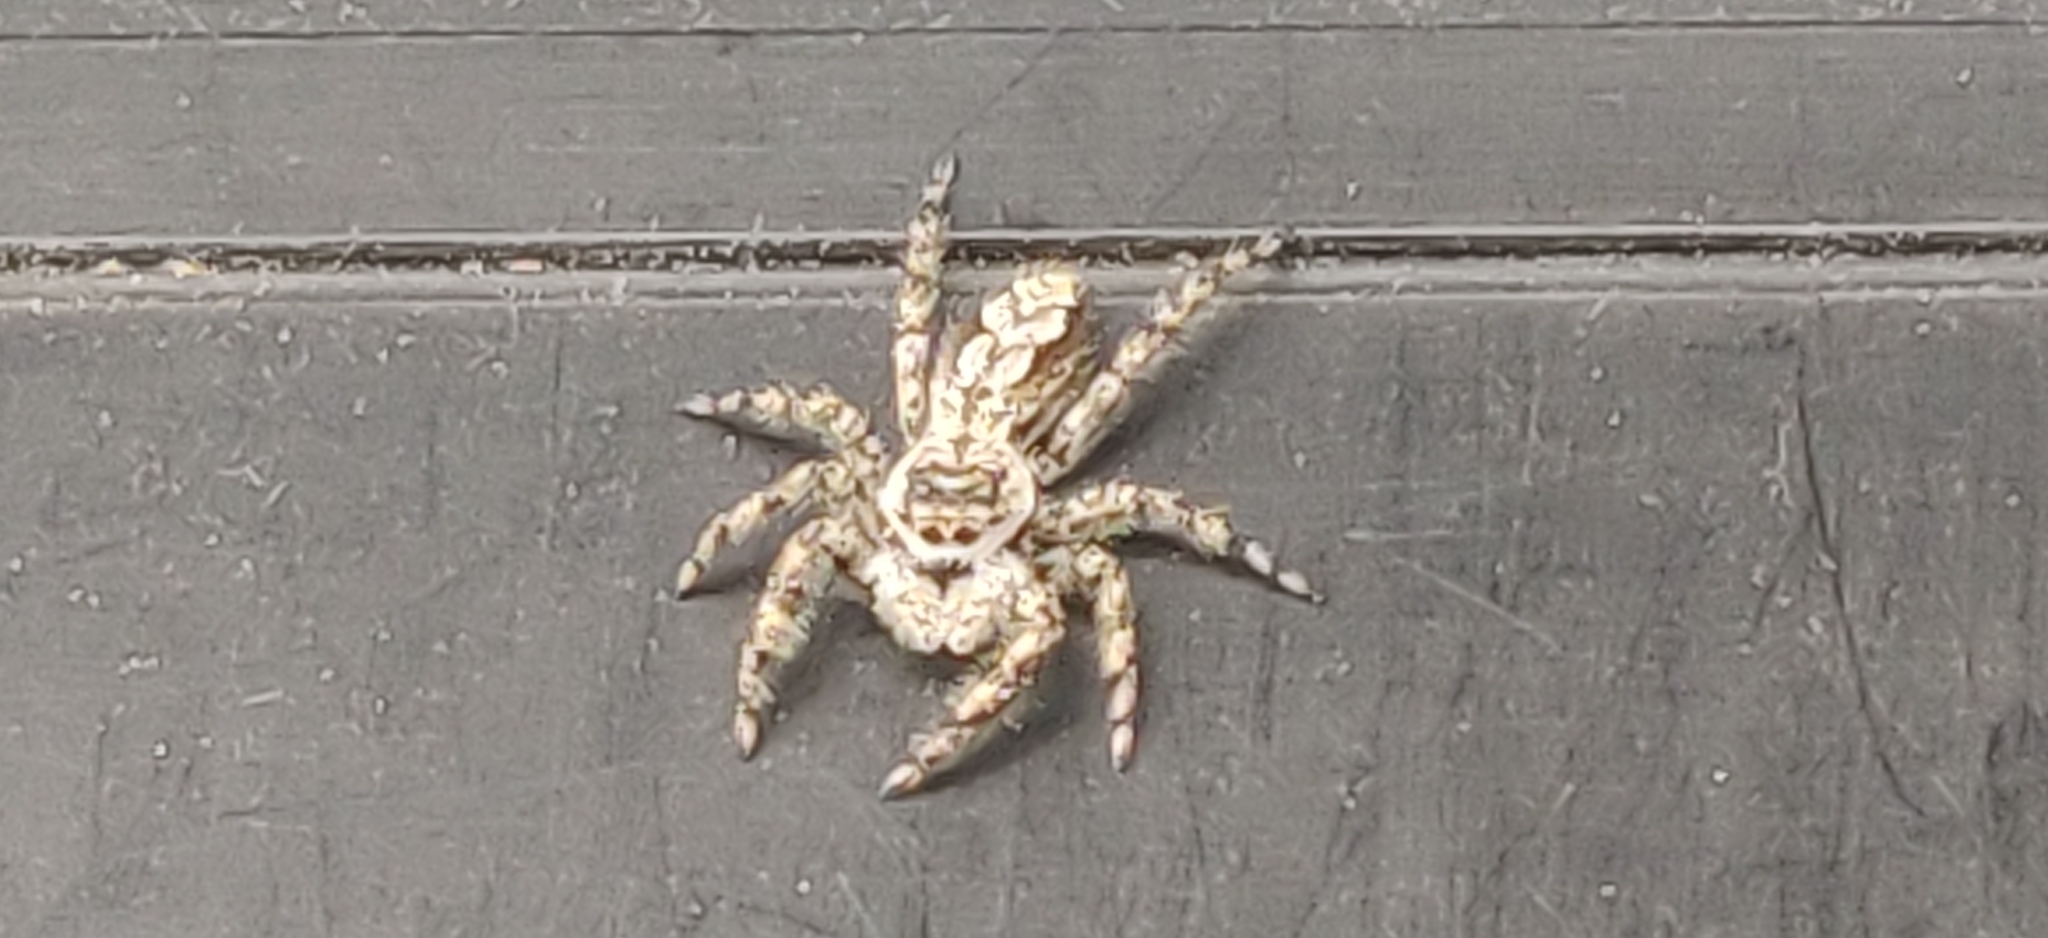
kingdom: Animalia
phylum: Arthropoda
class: Arachnida
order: Araneae
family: Salticidae
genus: Platycryptus
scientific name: Platycryptus undatus
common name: Tan jumping spider
